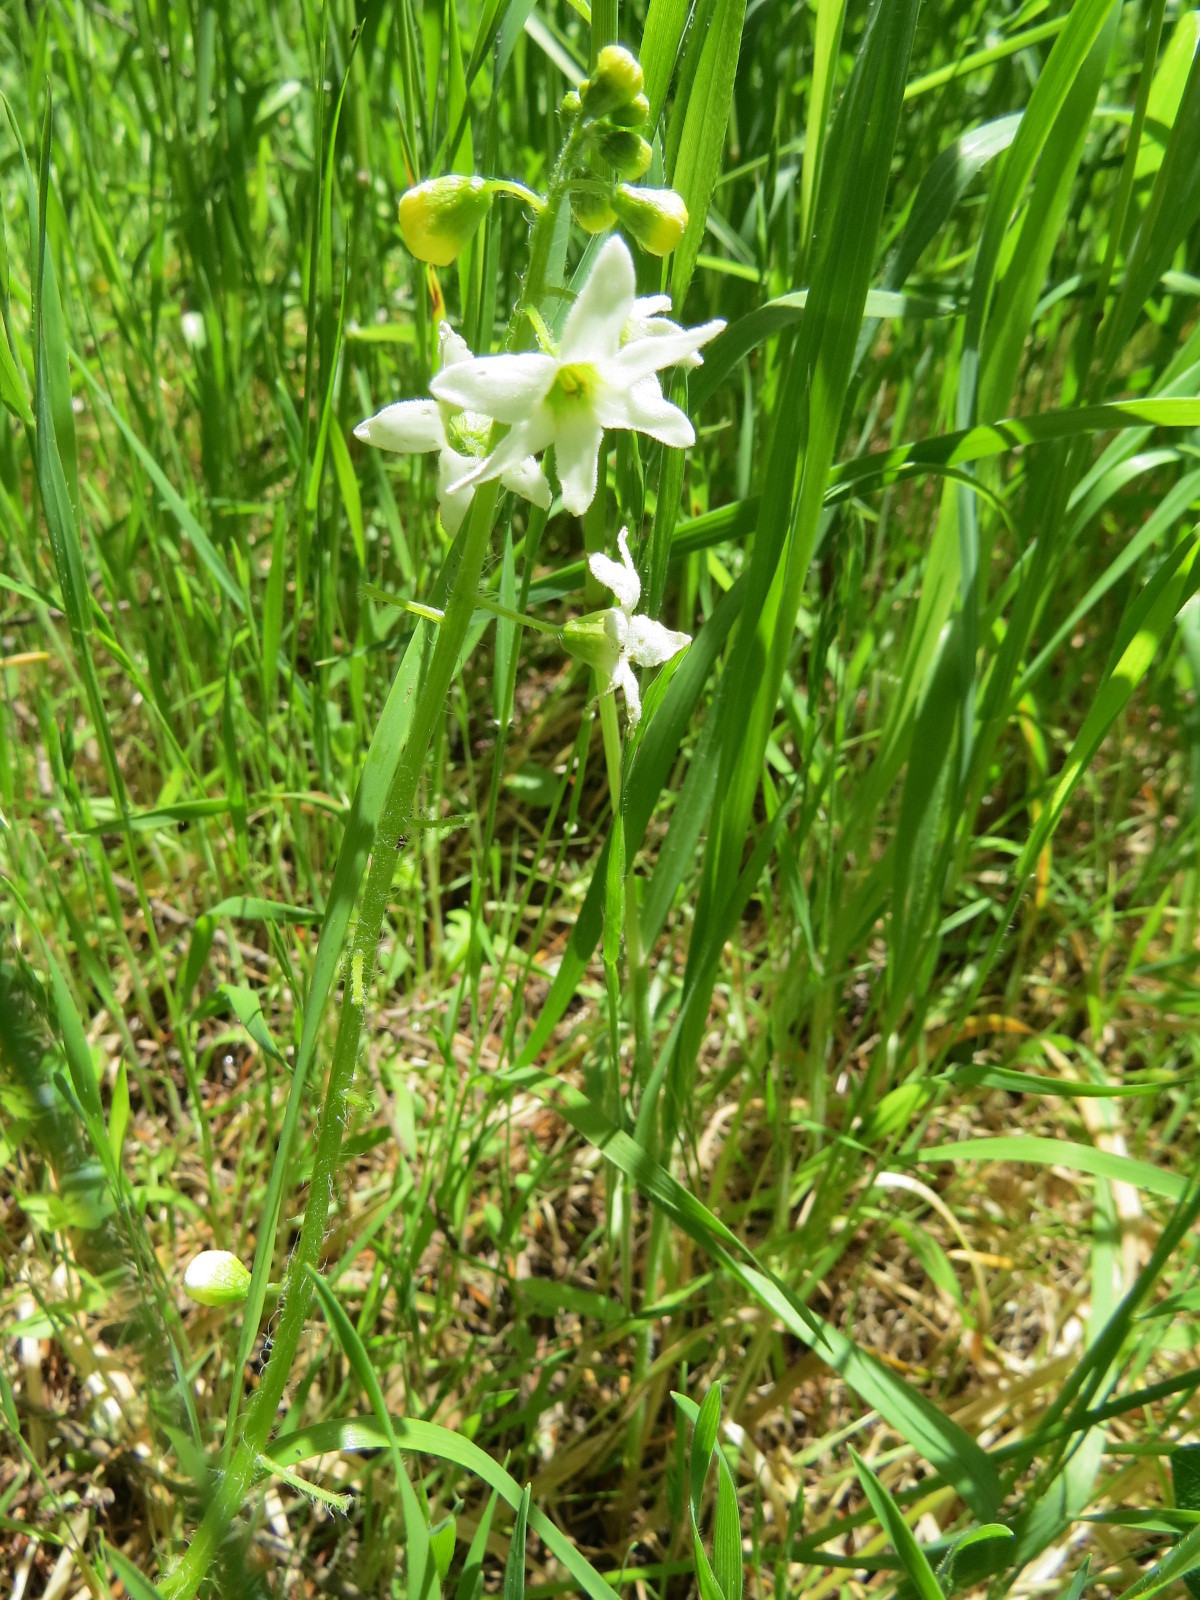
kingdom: Plantae
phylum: Tracheophyta
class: Magnoliopsida
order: Cucurbitales
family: Cucurbitaceae
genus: Marah
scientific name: Marah oregana
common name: Coastal manroot
